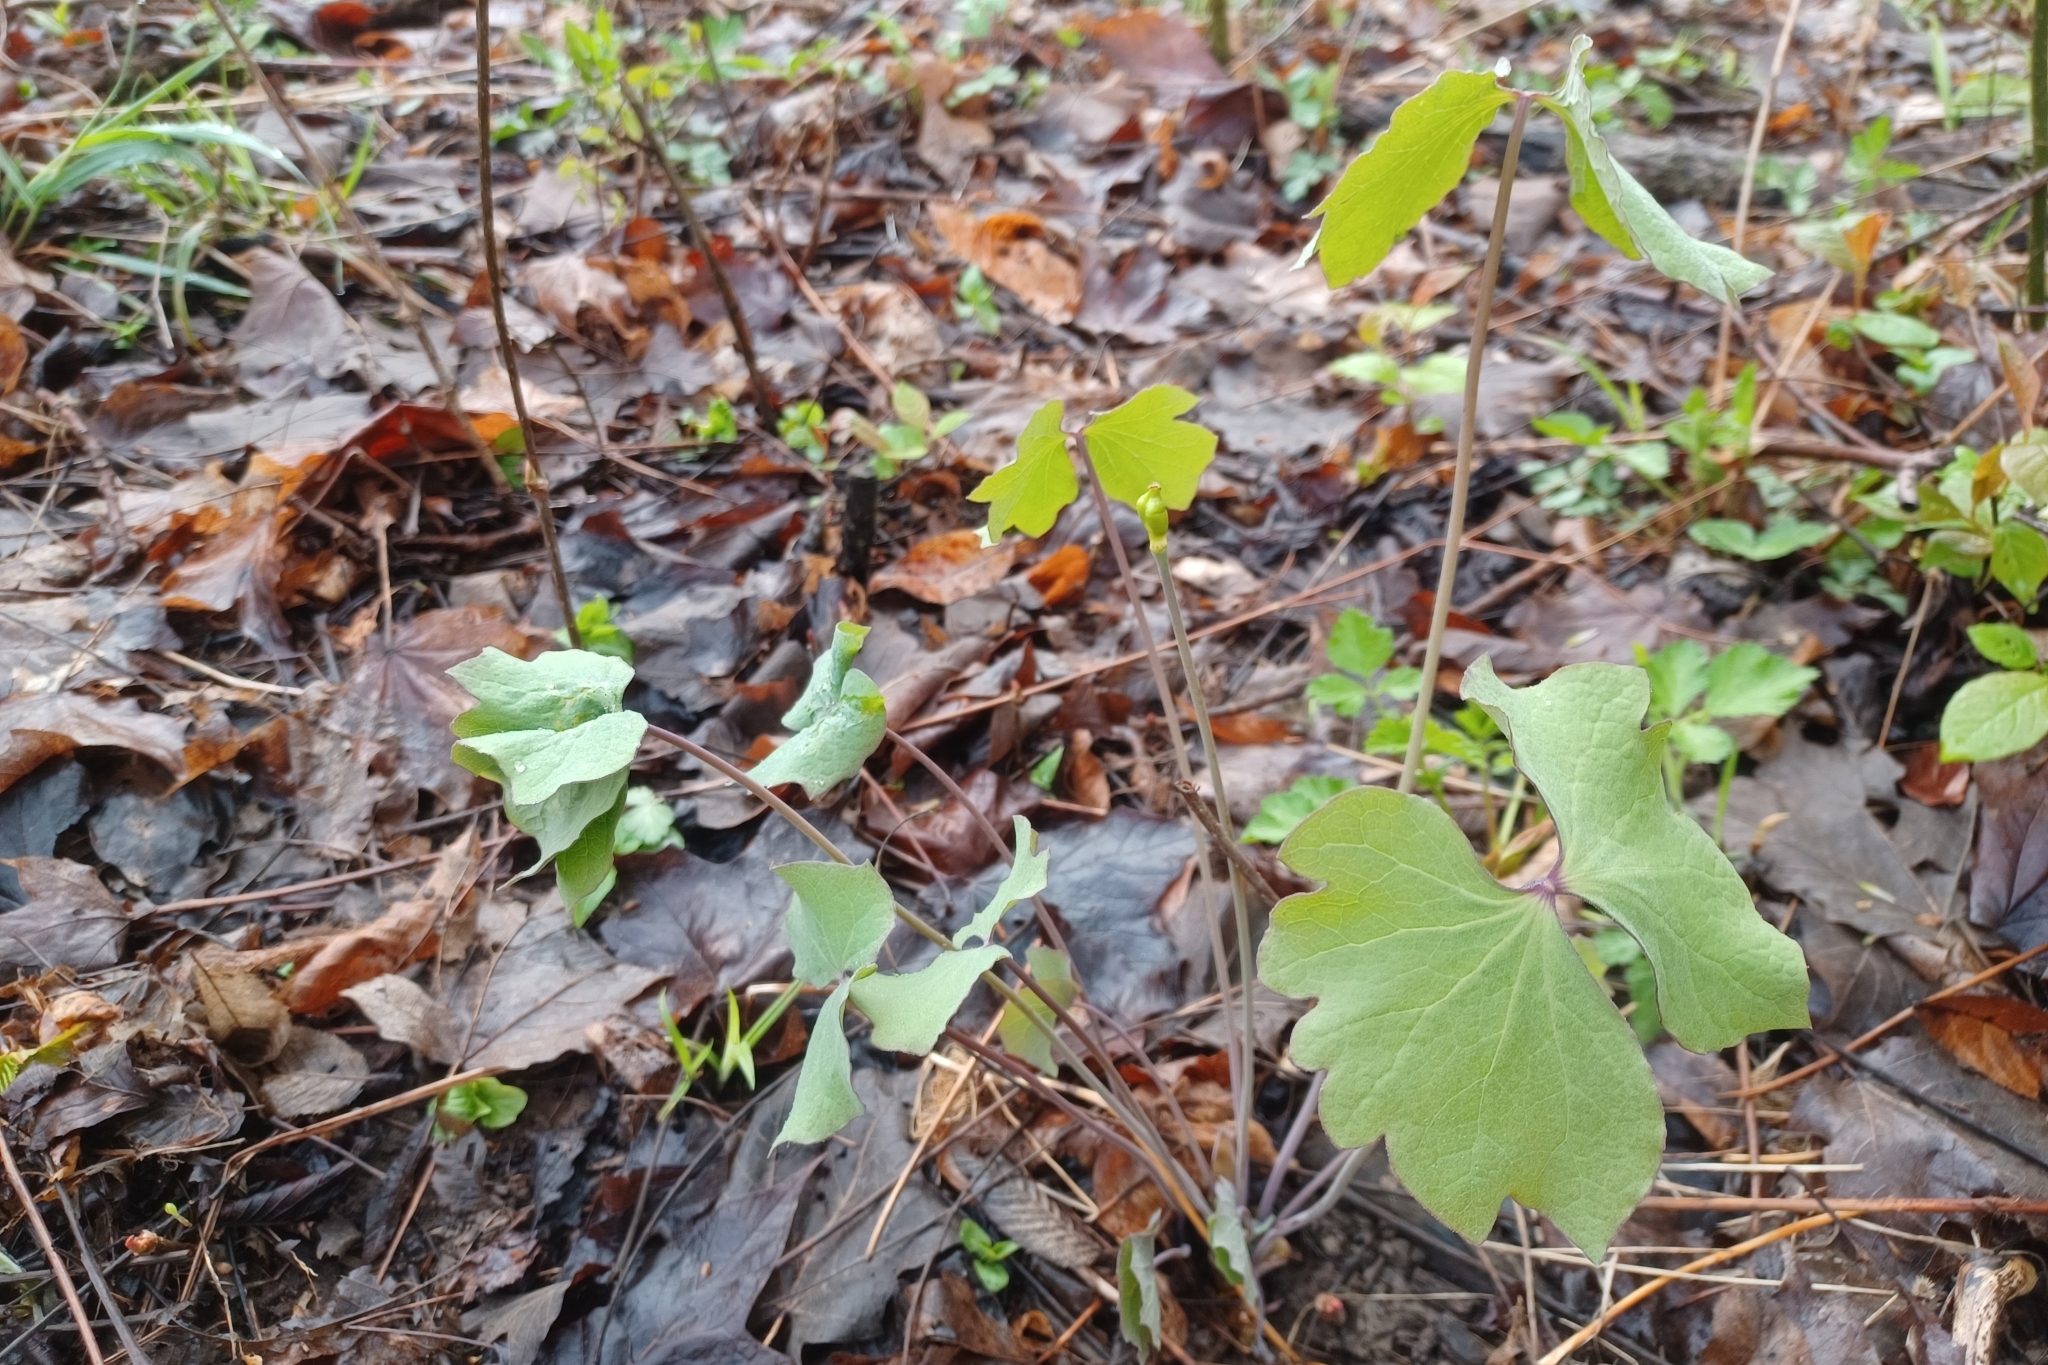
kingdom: Plantae
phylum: Tracheophyta
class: Magnoliopsida
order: Ranunculales
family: Berberidaceae
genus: Jeffersonia
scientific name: Jeffersonia diphylla
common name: Rheumatism-root
